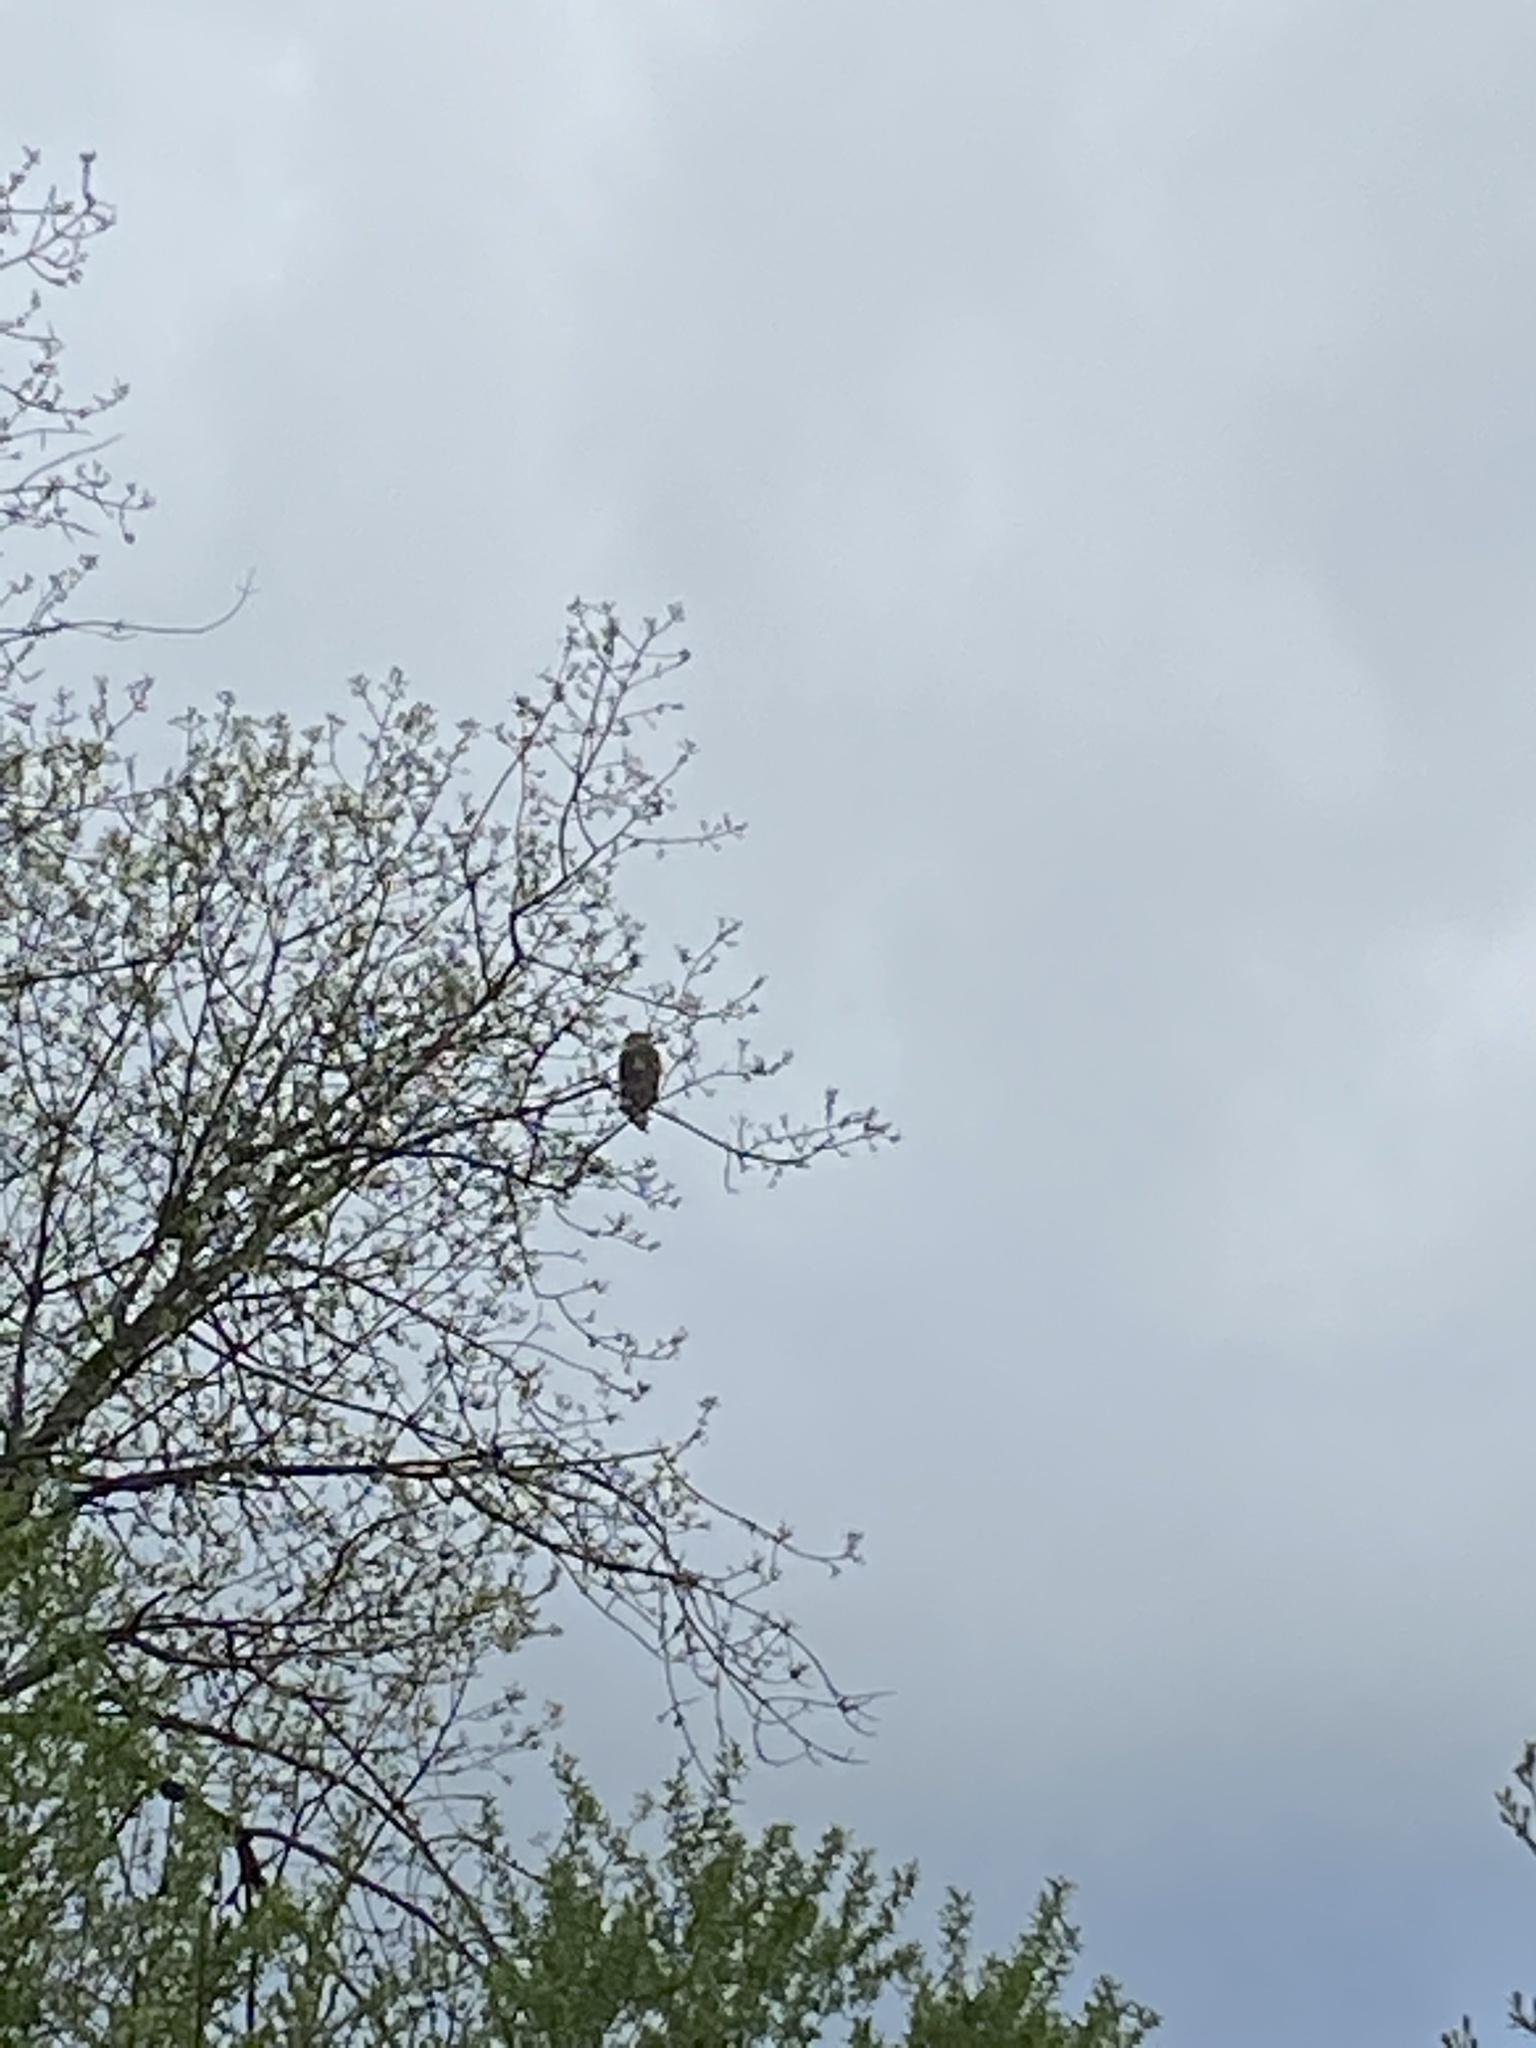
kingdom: Animalia
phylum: Chordata
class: Aves
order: Accipitriformes
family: Accipitridae
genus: Haliaeetus
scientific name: Haliaeetus leucocephalus
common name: Bald eagle
